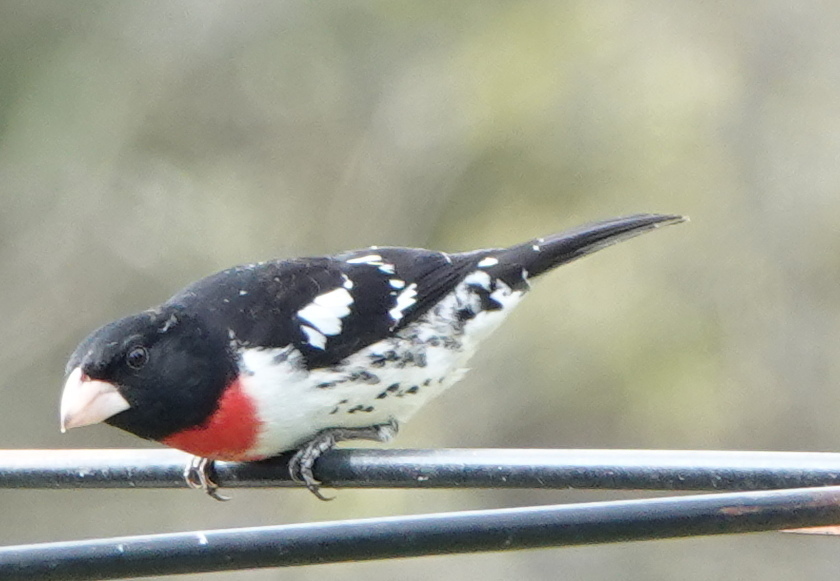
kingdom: Animalia
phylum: Chordata
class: Aves
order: Passeriformes
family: Cardinalidae
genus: Pheucticus
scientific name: Pheucticus ludovicianus
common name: Rose-breasted grosbeak
